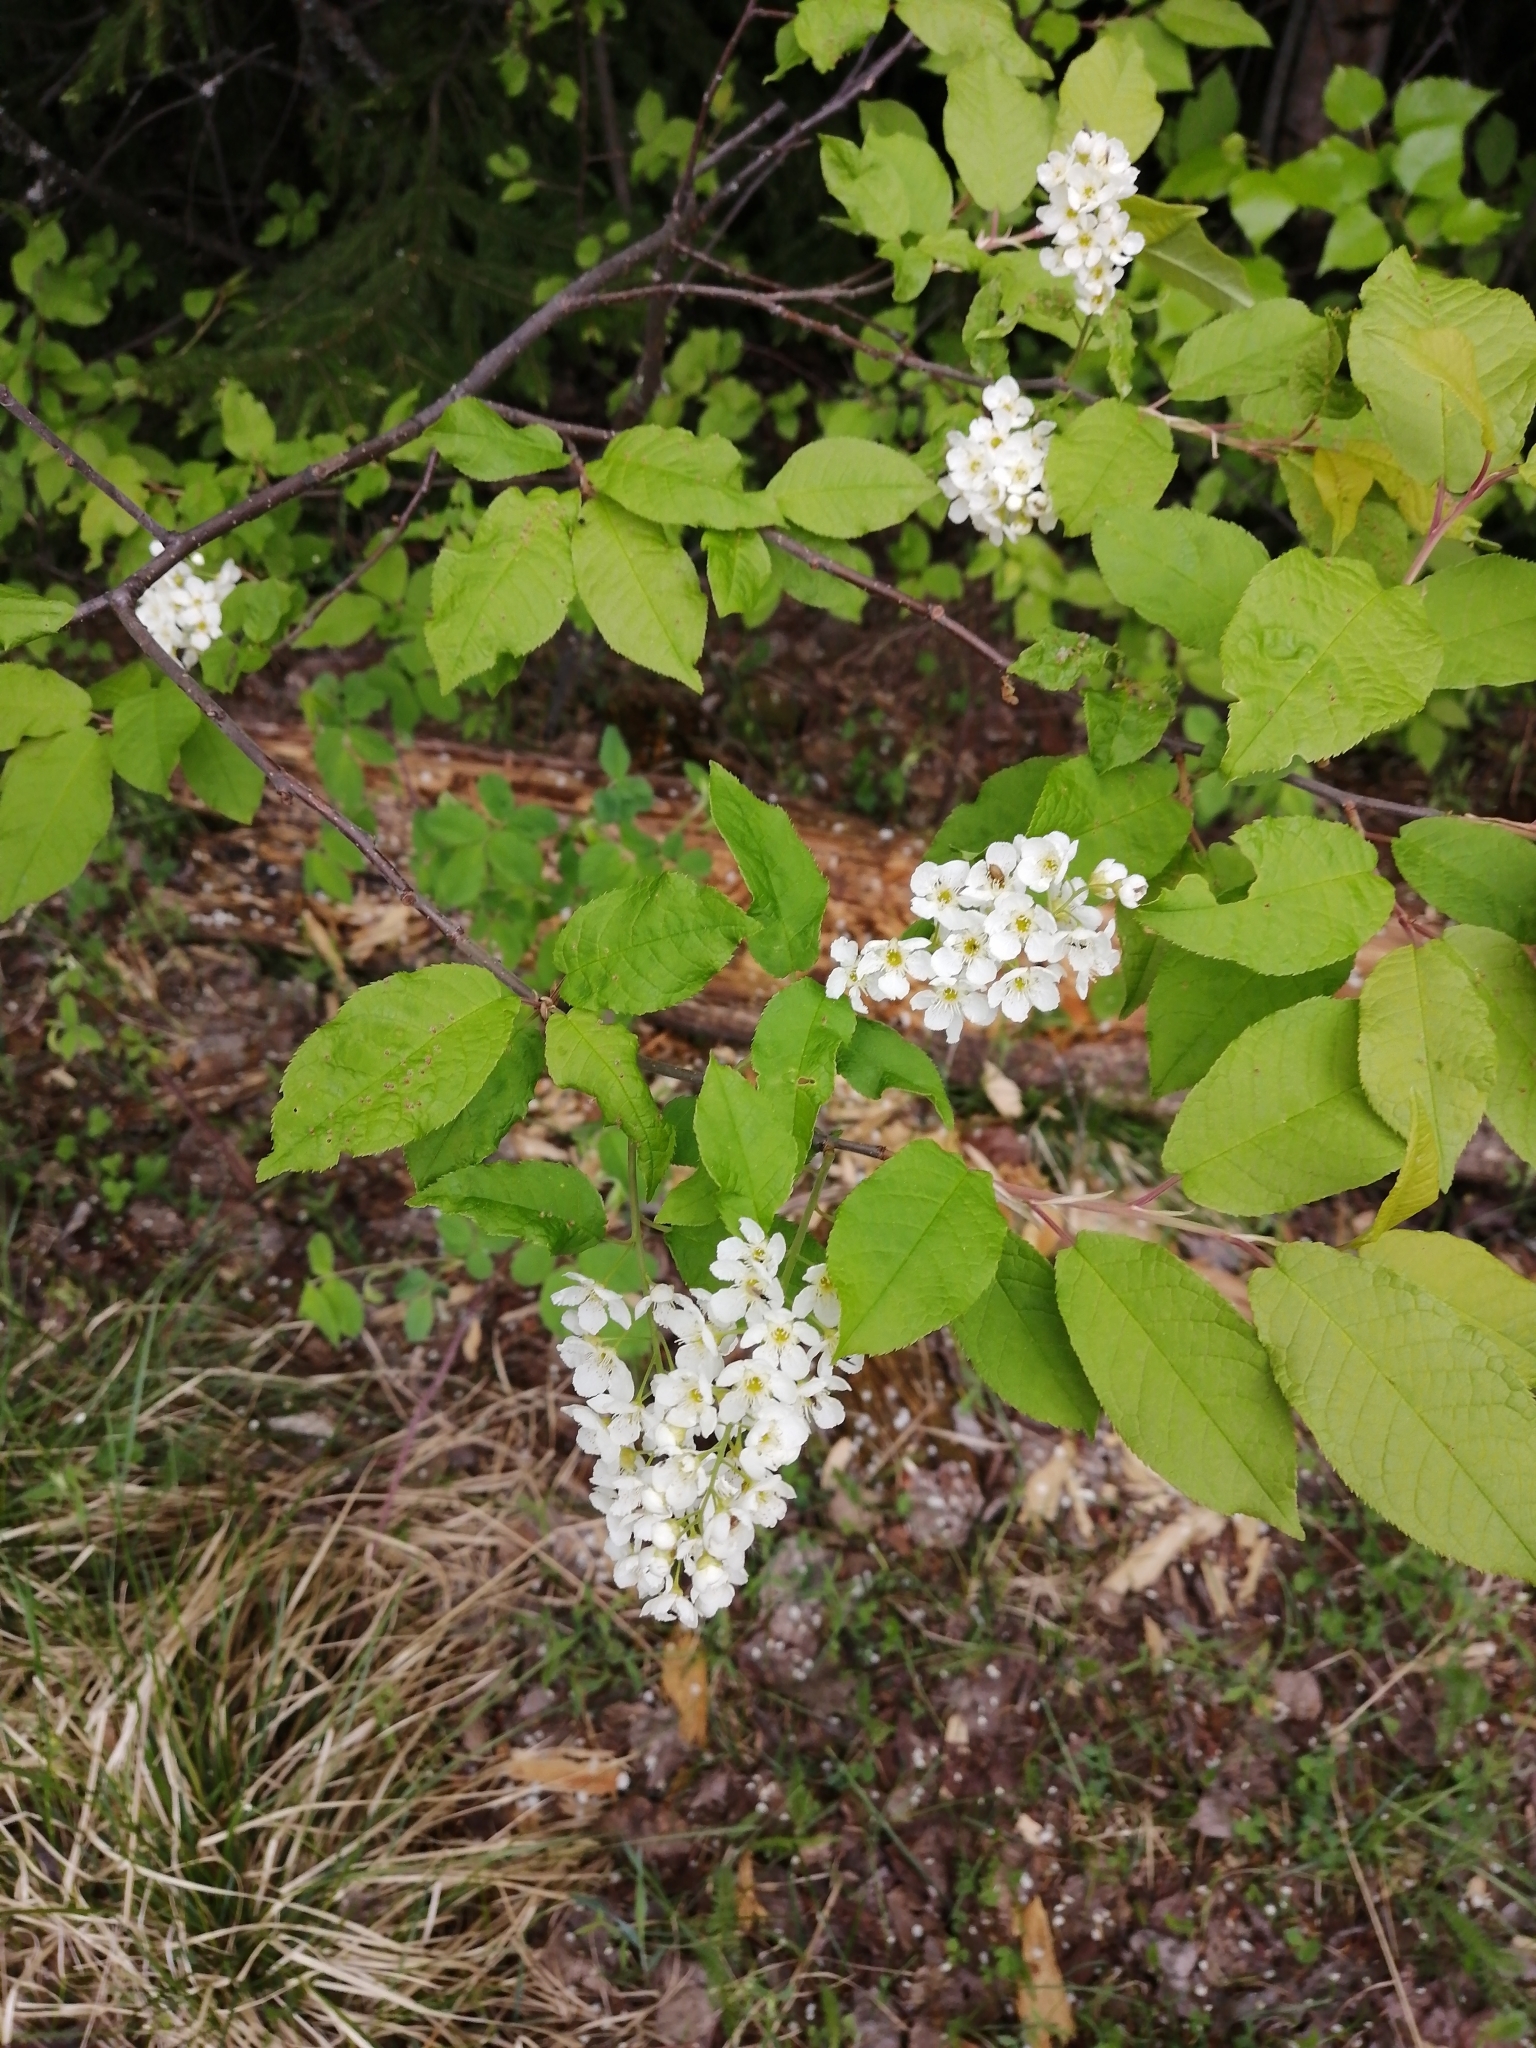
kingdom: Plantae
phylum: Tracheophyta
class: Magnoliopsida
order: Rosales
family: Rosaceae
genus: Prunus
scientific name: Prunus padus
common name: Bird cherry
